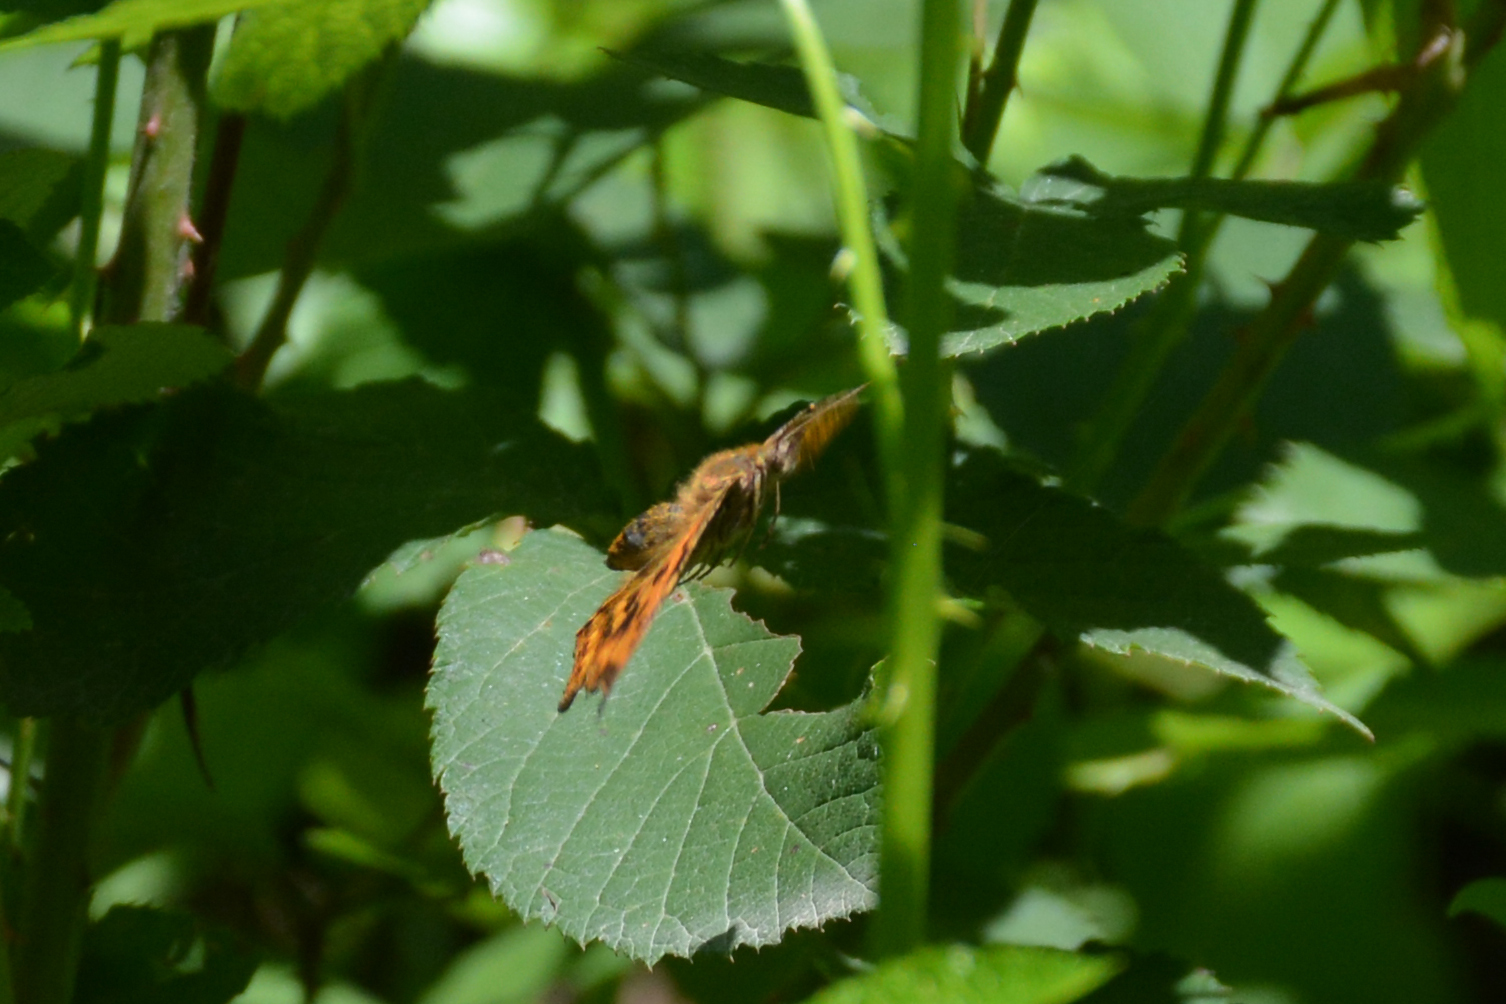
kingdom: Animalia
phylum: Arthropoda
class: Insecta
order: Lepidoptera
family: Nymphalidae
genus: Polygonia
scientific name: Polygonia c-album
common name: Comma
